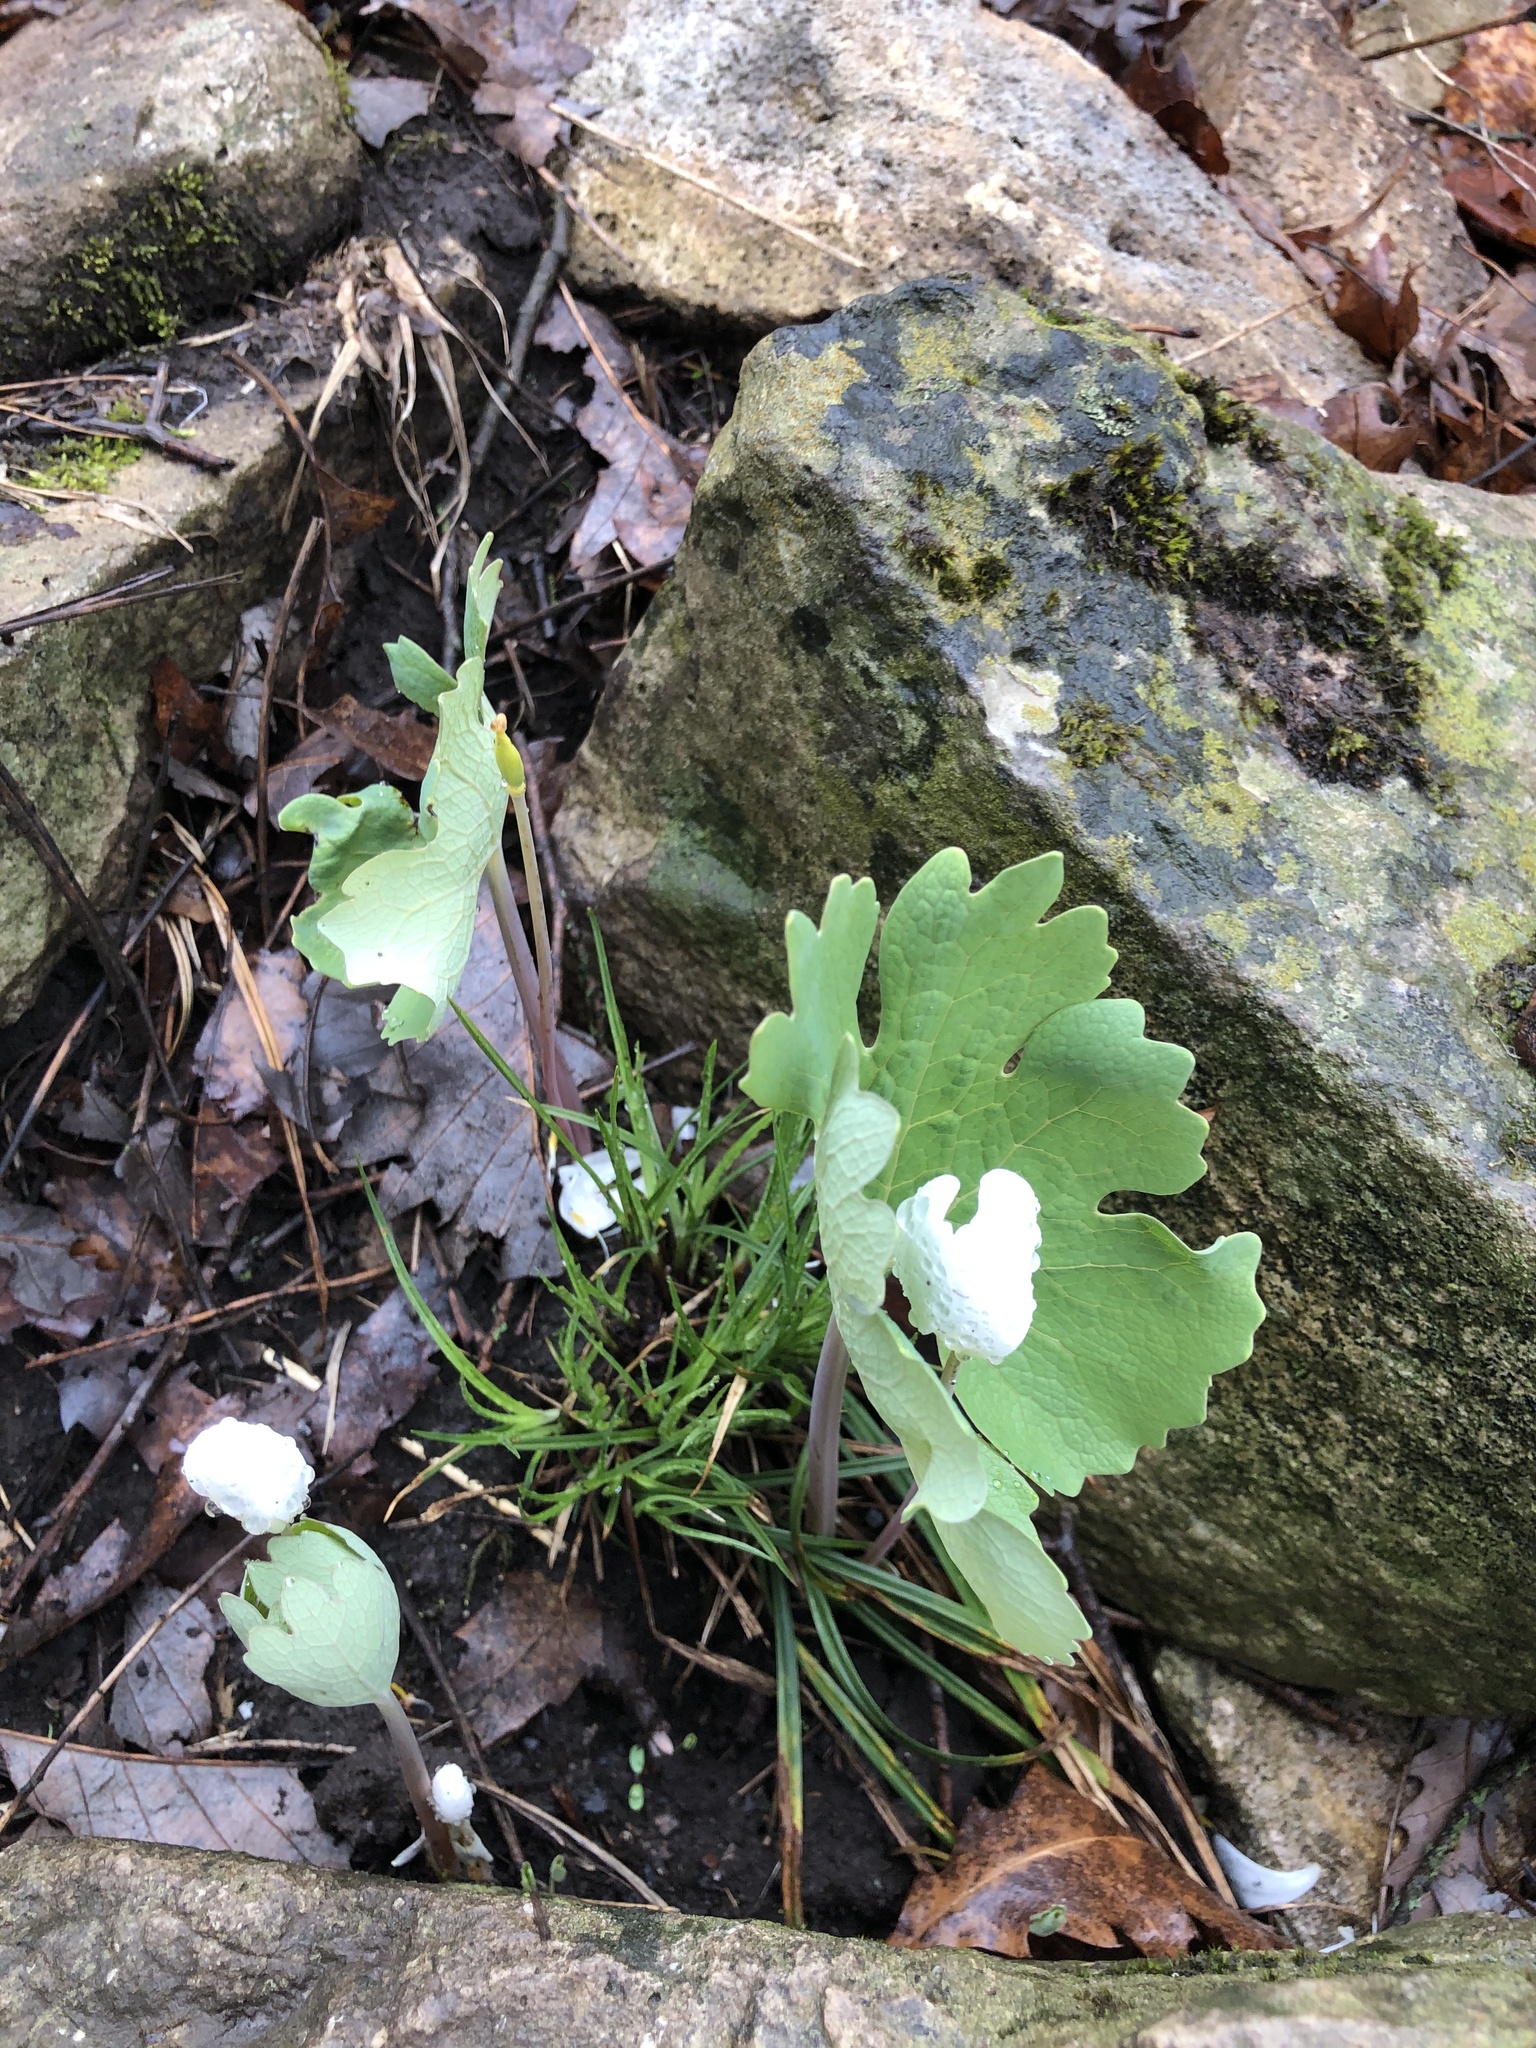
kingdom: Plantae
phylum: Tracheophyta
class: Magnoliopsida
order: Ranunculales
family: Papaveraceae
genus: Sanguinaria
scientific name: Sanguinaria canadensis
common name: Bloodroot
